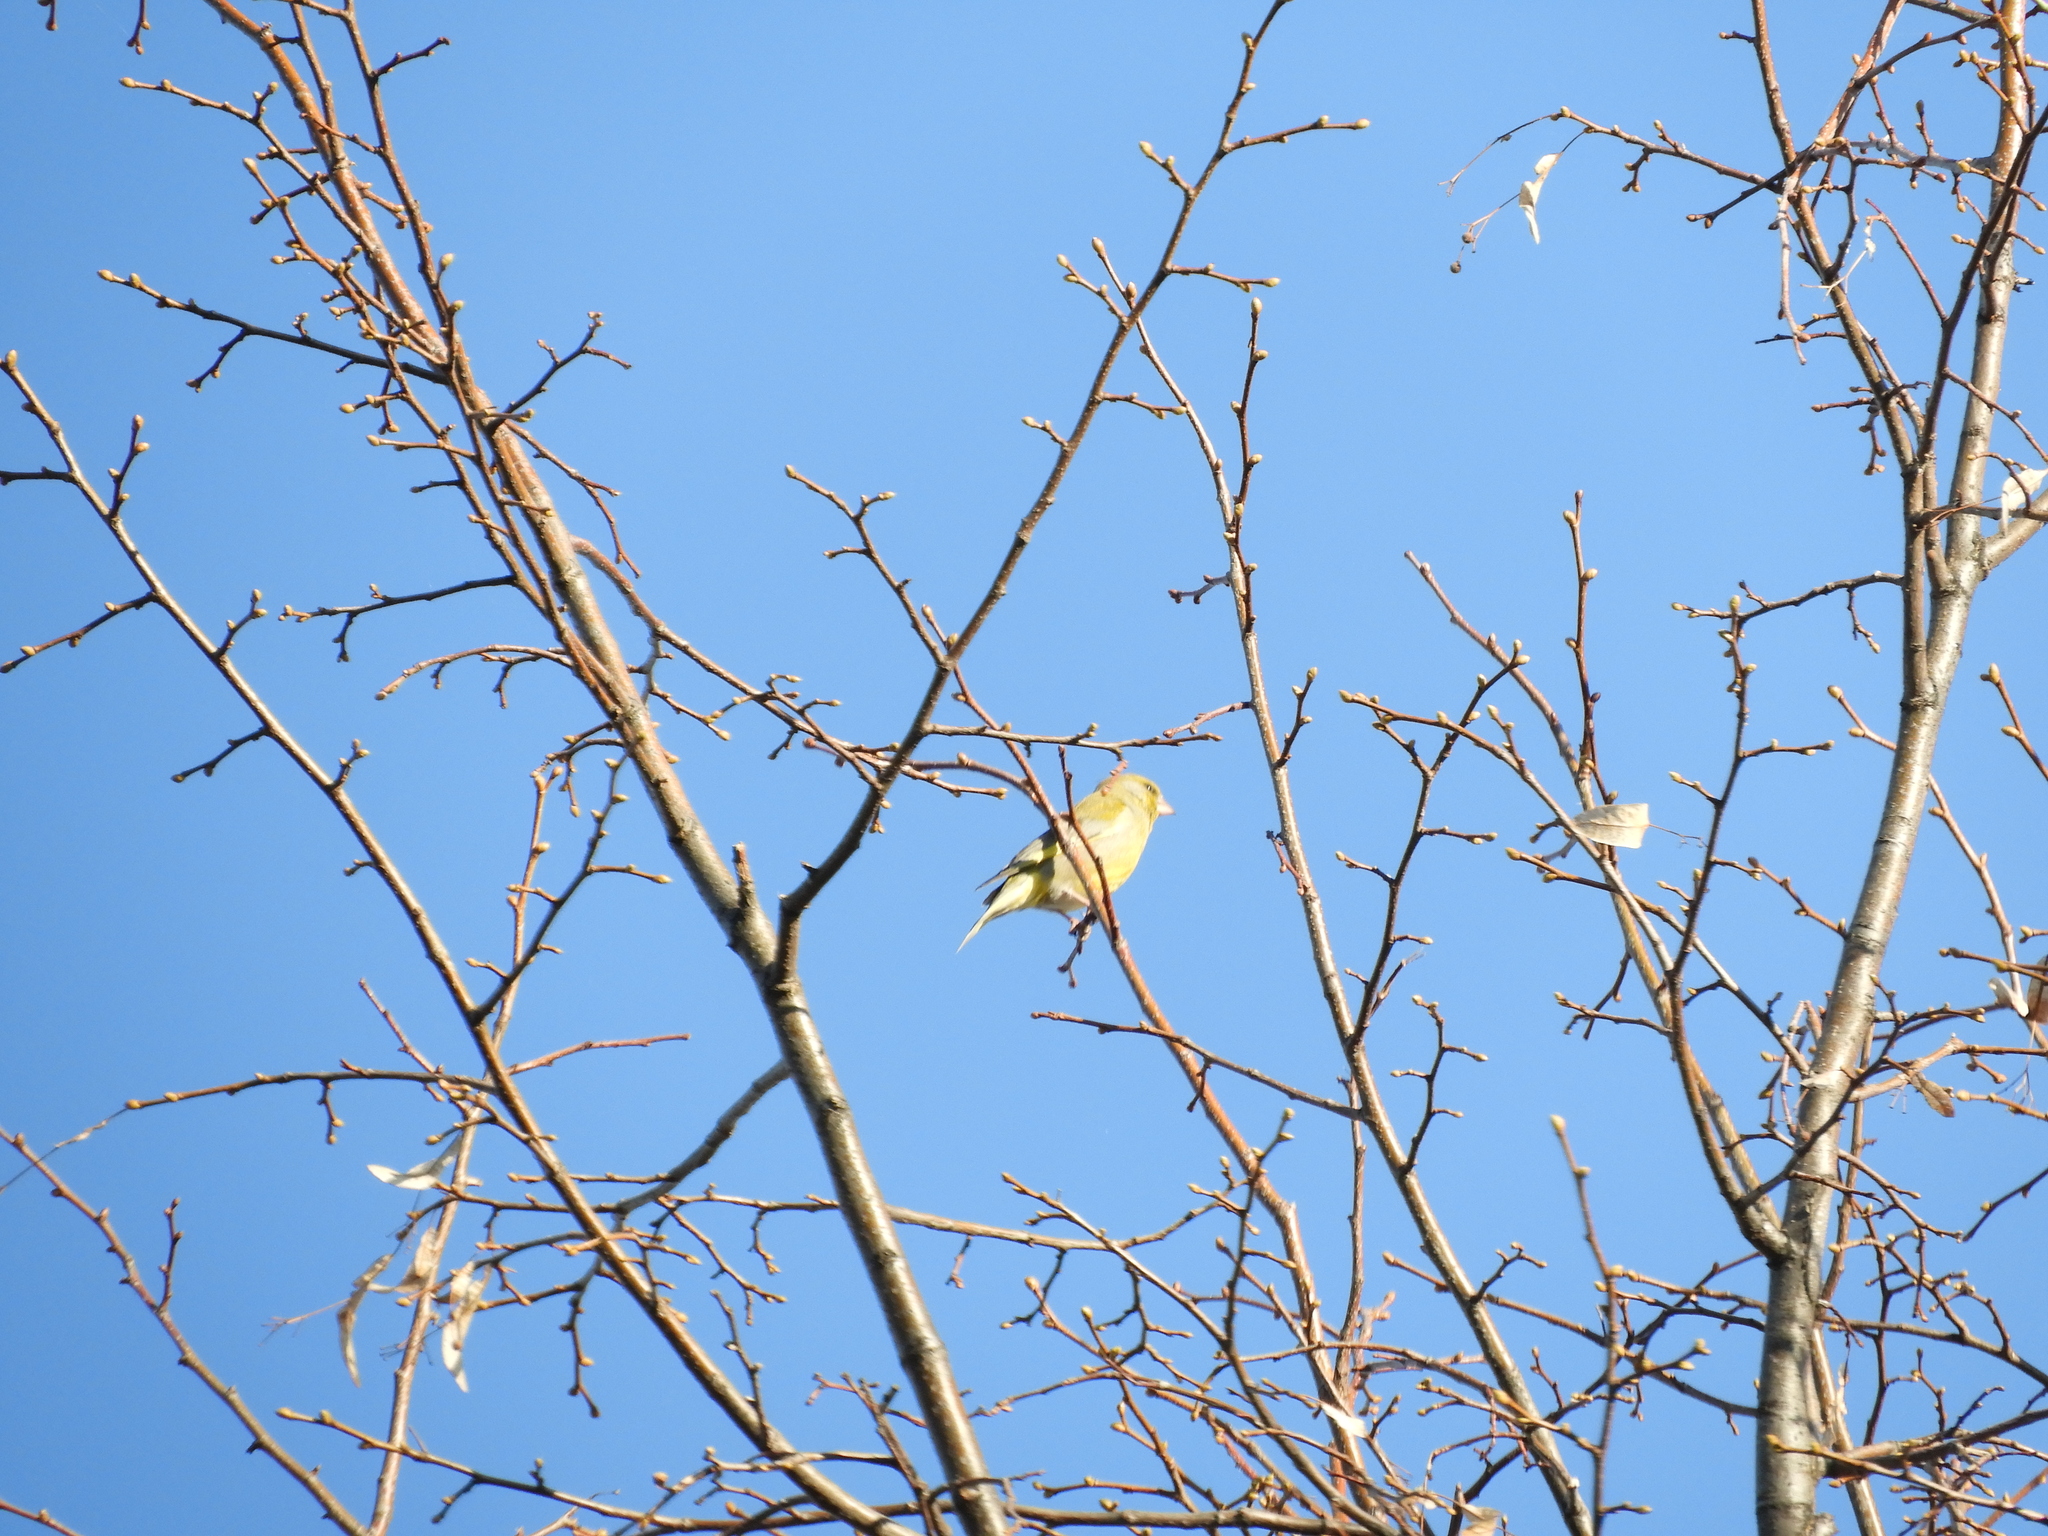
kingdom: Plantae
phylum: Tracheophyta
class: Liliopsida
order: Poales
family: Poaceae
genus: Chloris
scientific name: Chloris chloris
